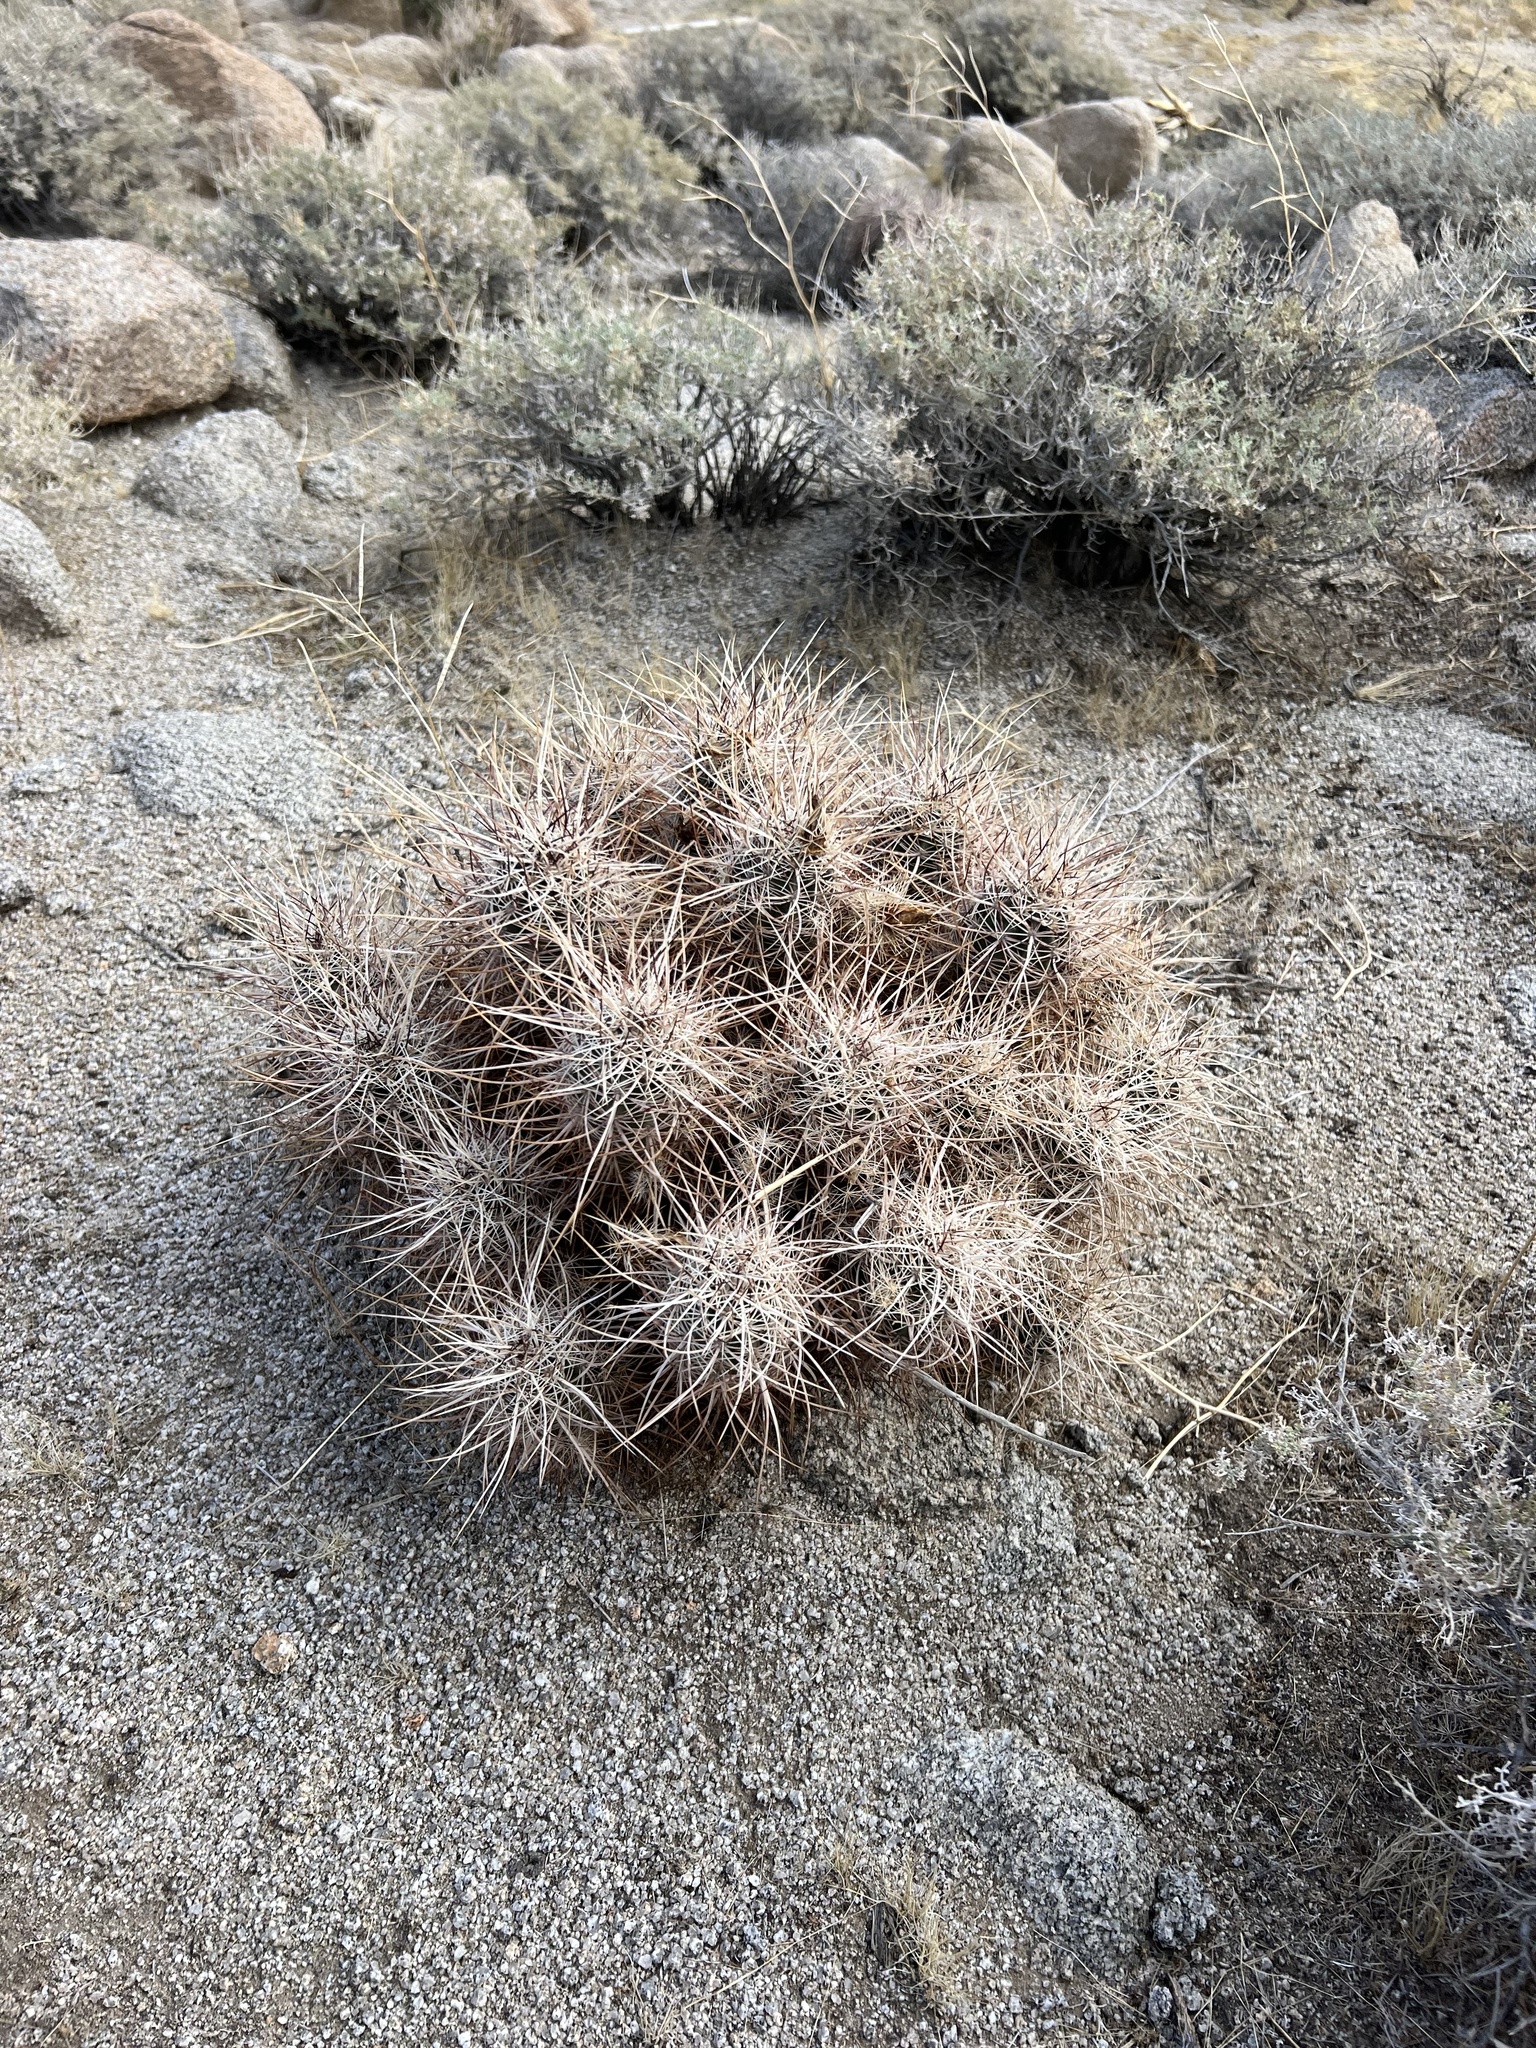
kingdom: Plantae
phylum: Tracheophyta
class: Magnoliopsida
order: Caryophyllales
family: Cactaceae
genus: Echinocereus
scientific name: Echinocereus engelmannii
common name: Engelmann's hedgehog cactus
